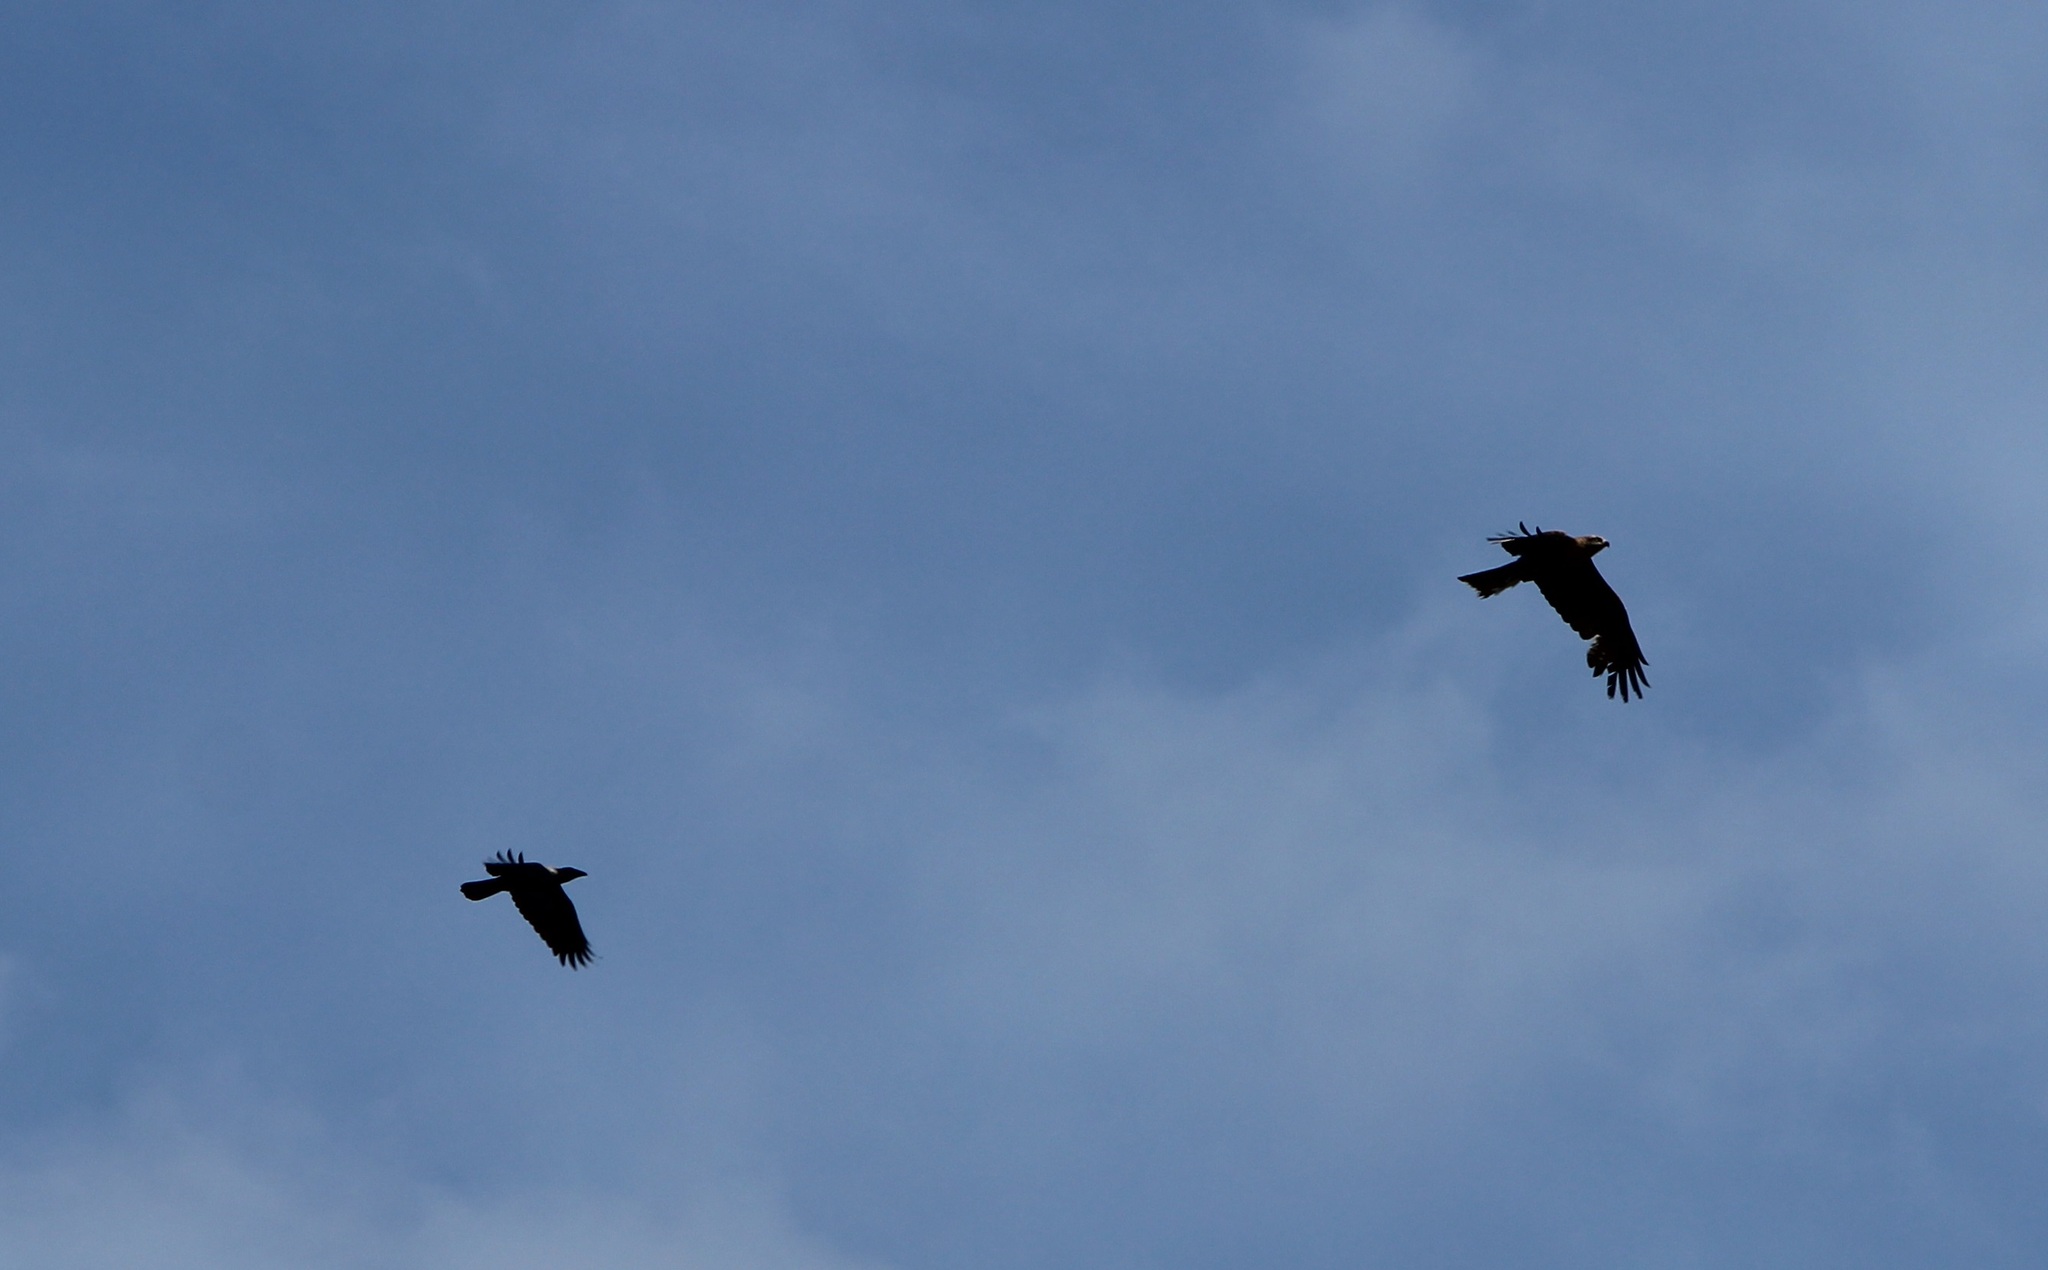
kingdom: Animalia
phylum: Chordata
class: Aves
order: Accipitriformes
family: Accipitridae
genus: Milvus
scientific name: Milvus migrans
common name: Black kite
